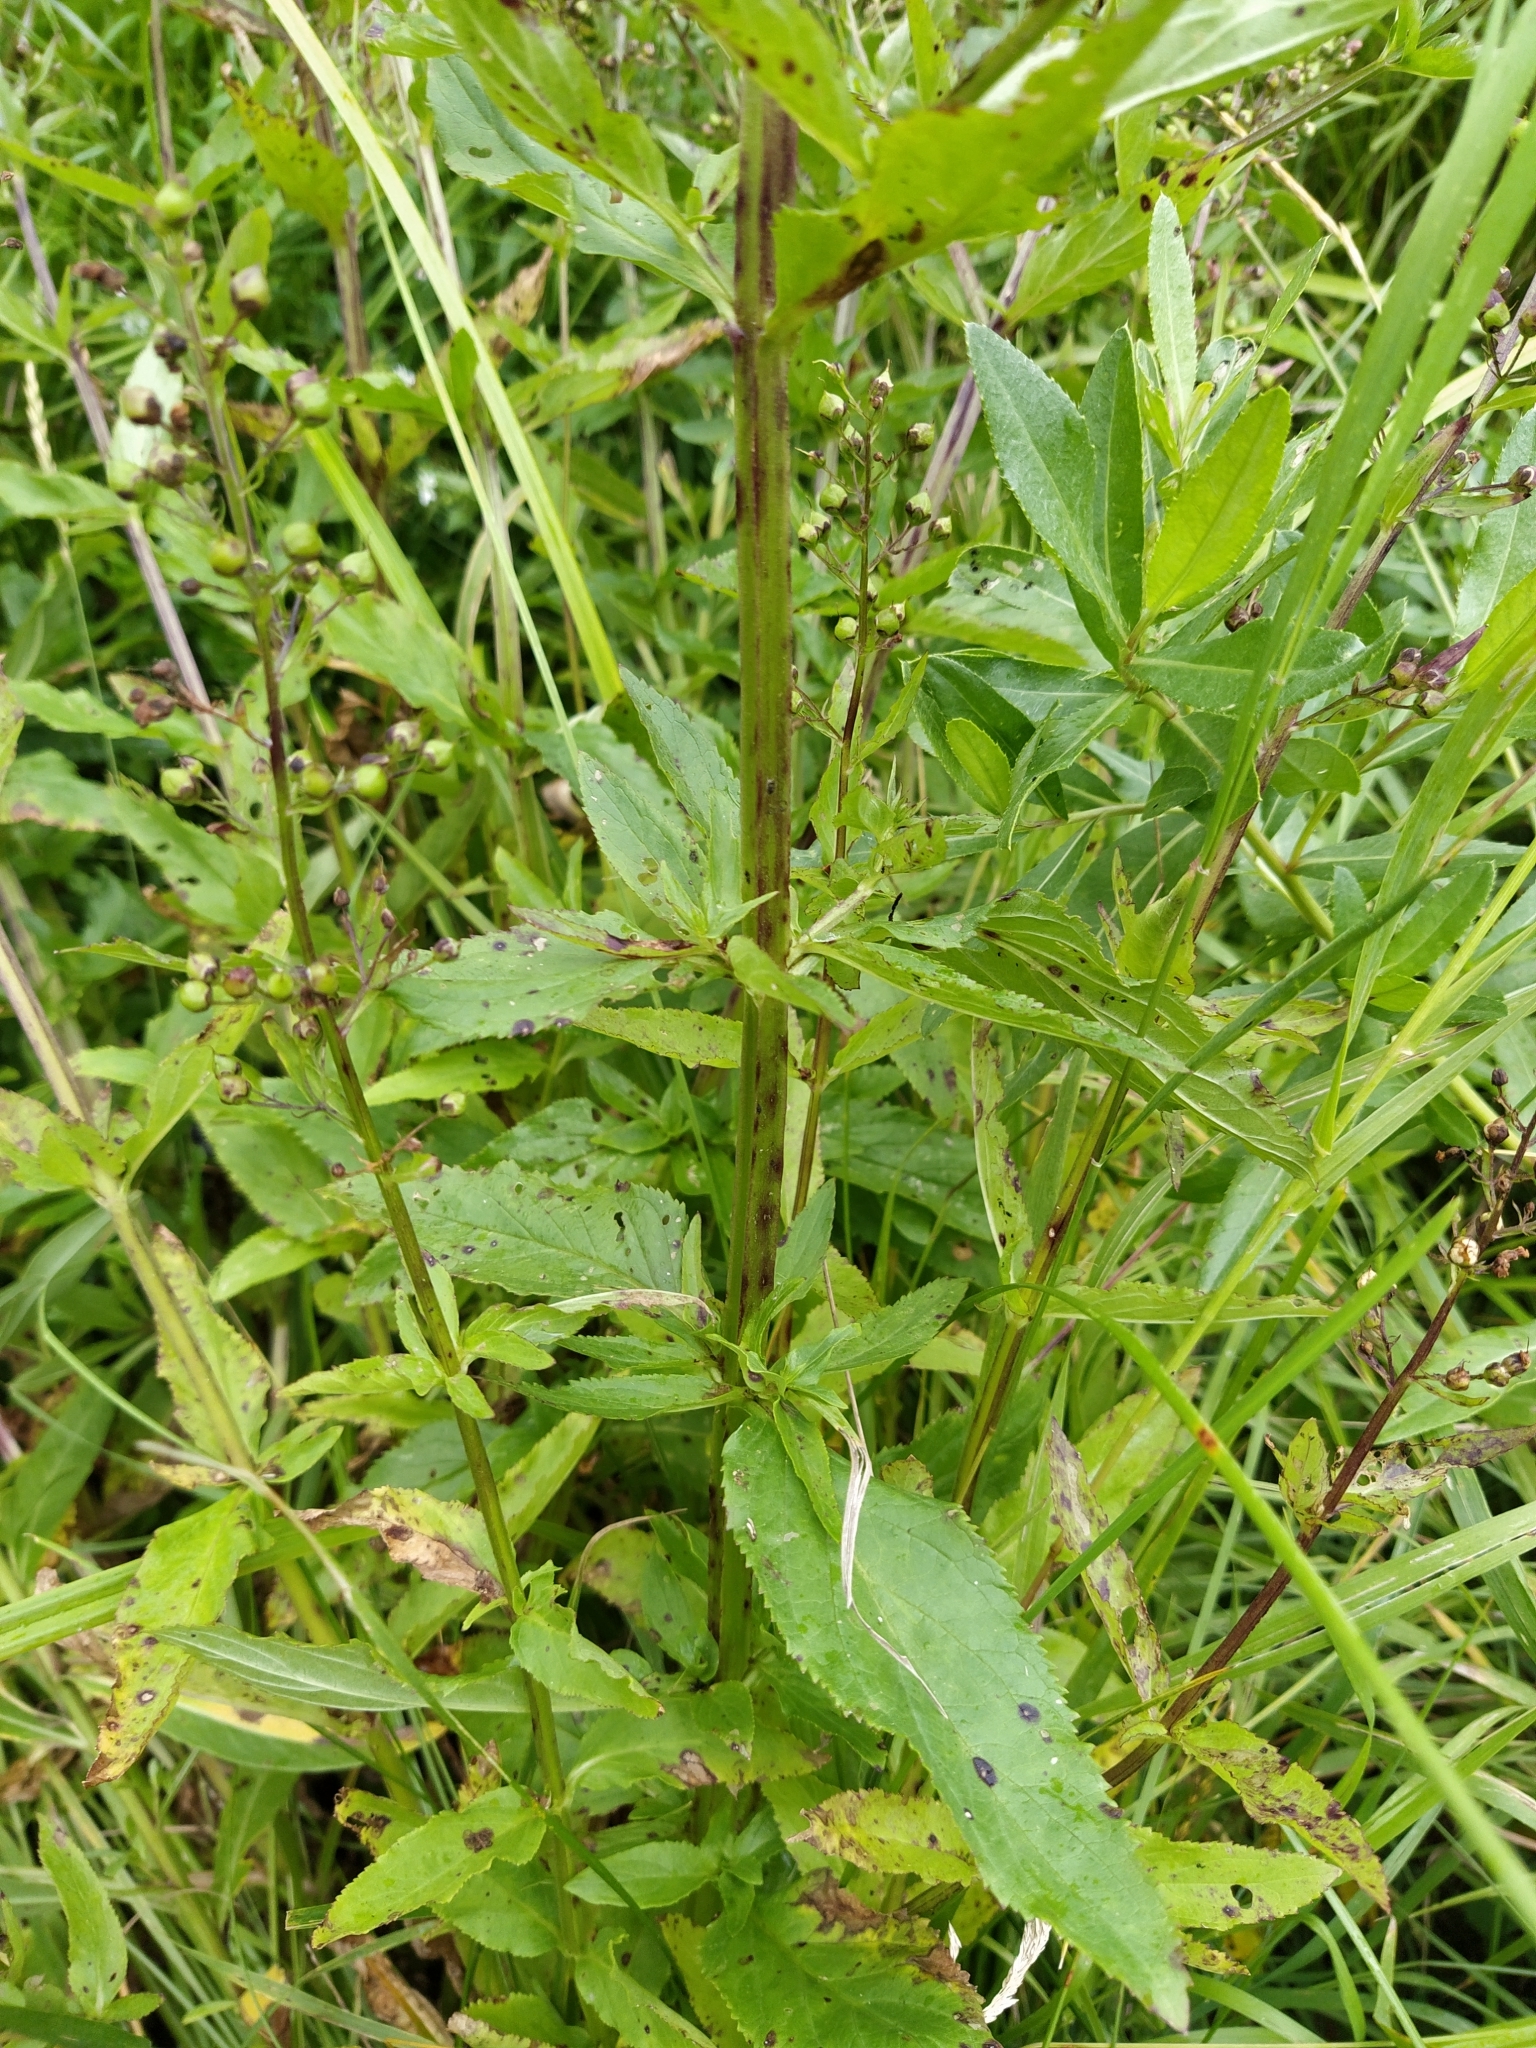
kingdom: Plantae
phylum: Tracheophyta
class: Magnoliopsida
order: Lamiales
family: Scrophulariaceae
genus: Scrophularia
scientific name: Scrophularia umbrosa
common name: Green figwort
